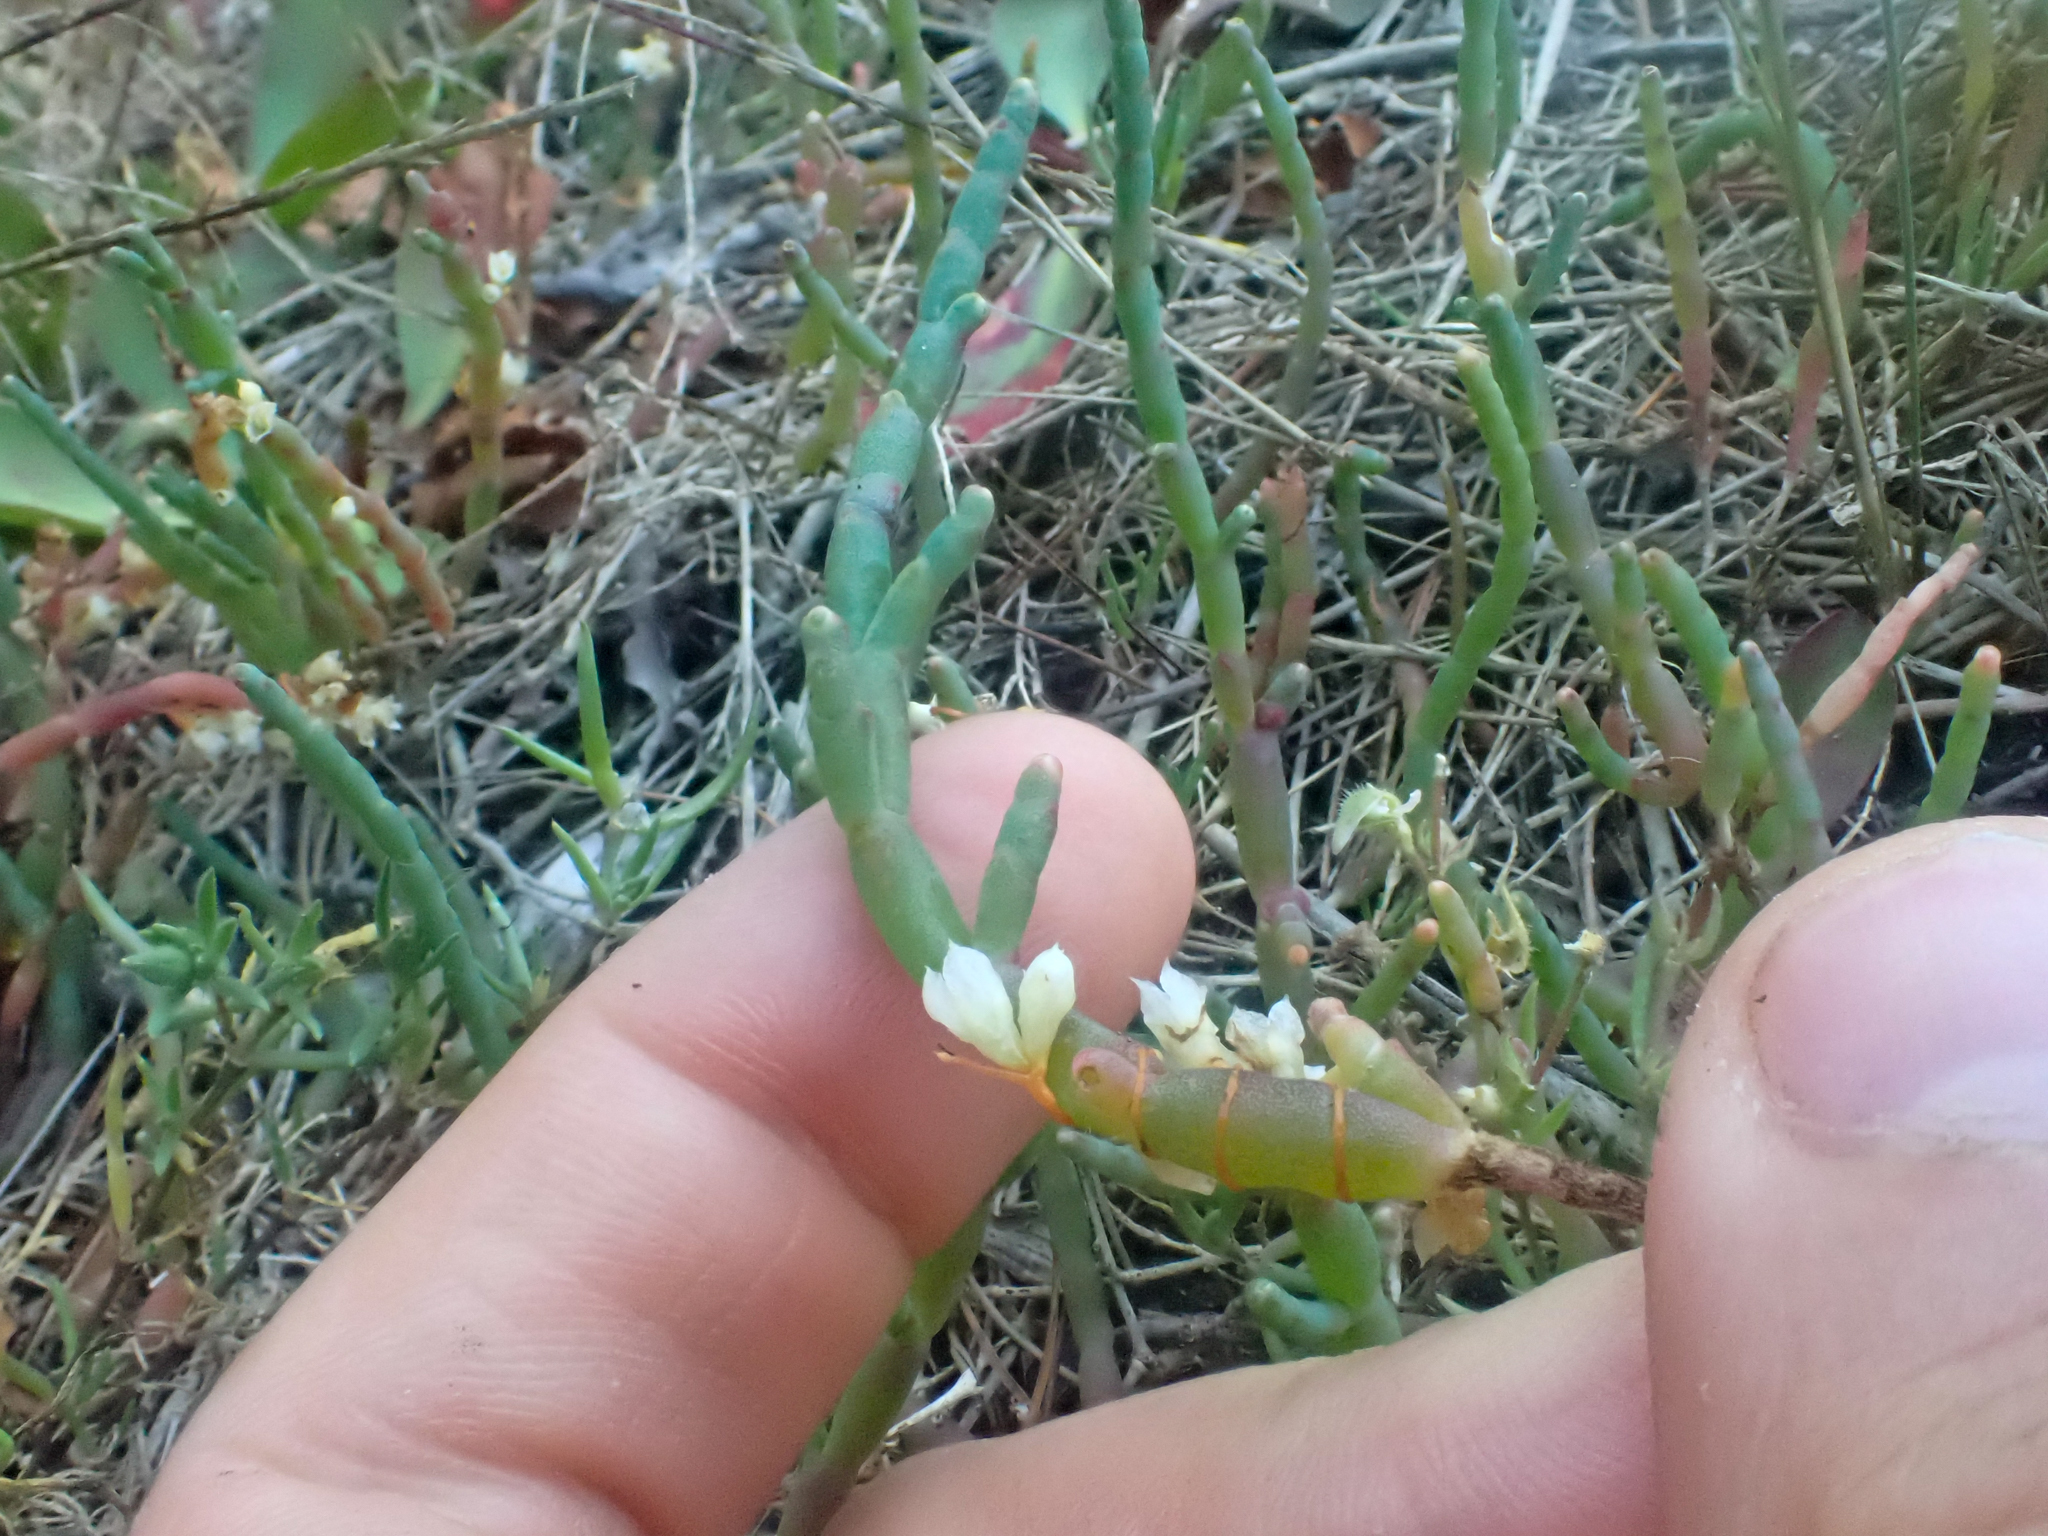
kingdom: Plantae
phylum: Tracheophyta
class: Magnoliopsida
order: Solanales
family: Convolvulaceae
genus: Cuscuta
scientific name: Cuscuta pacifica
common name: Large saltmarsh dodder
